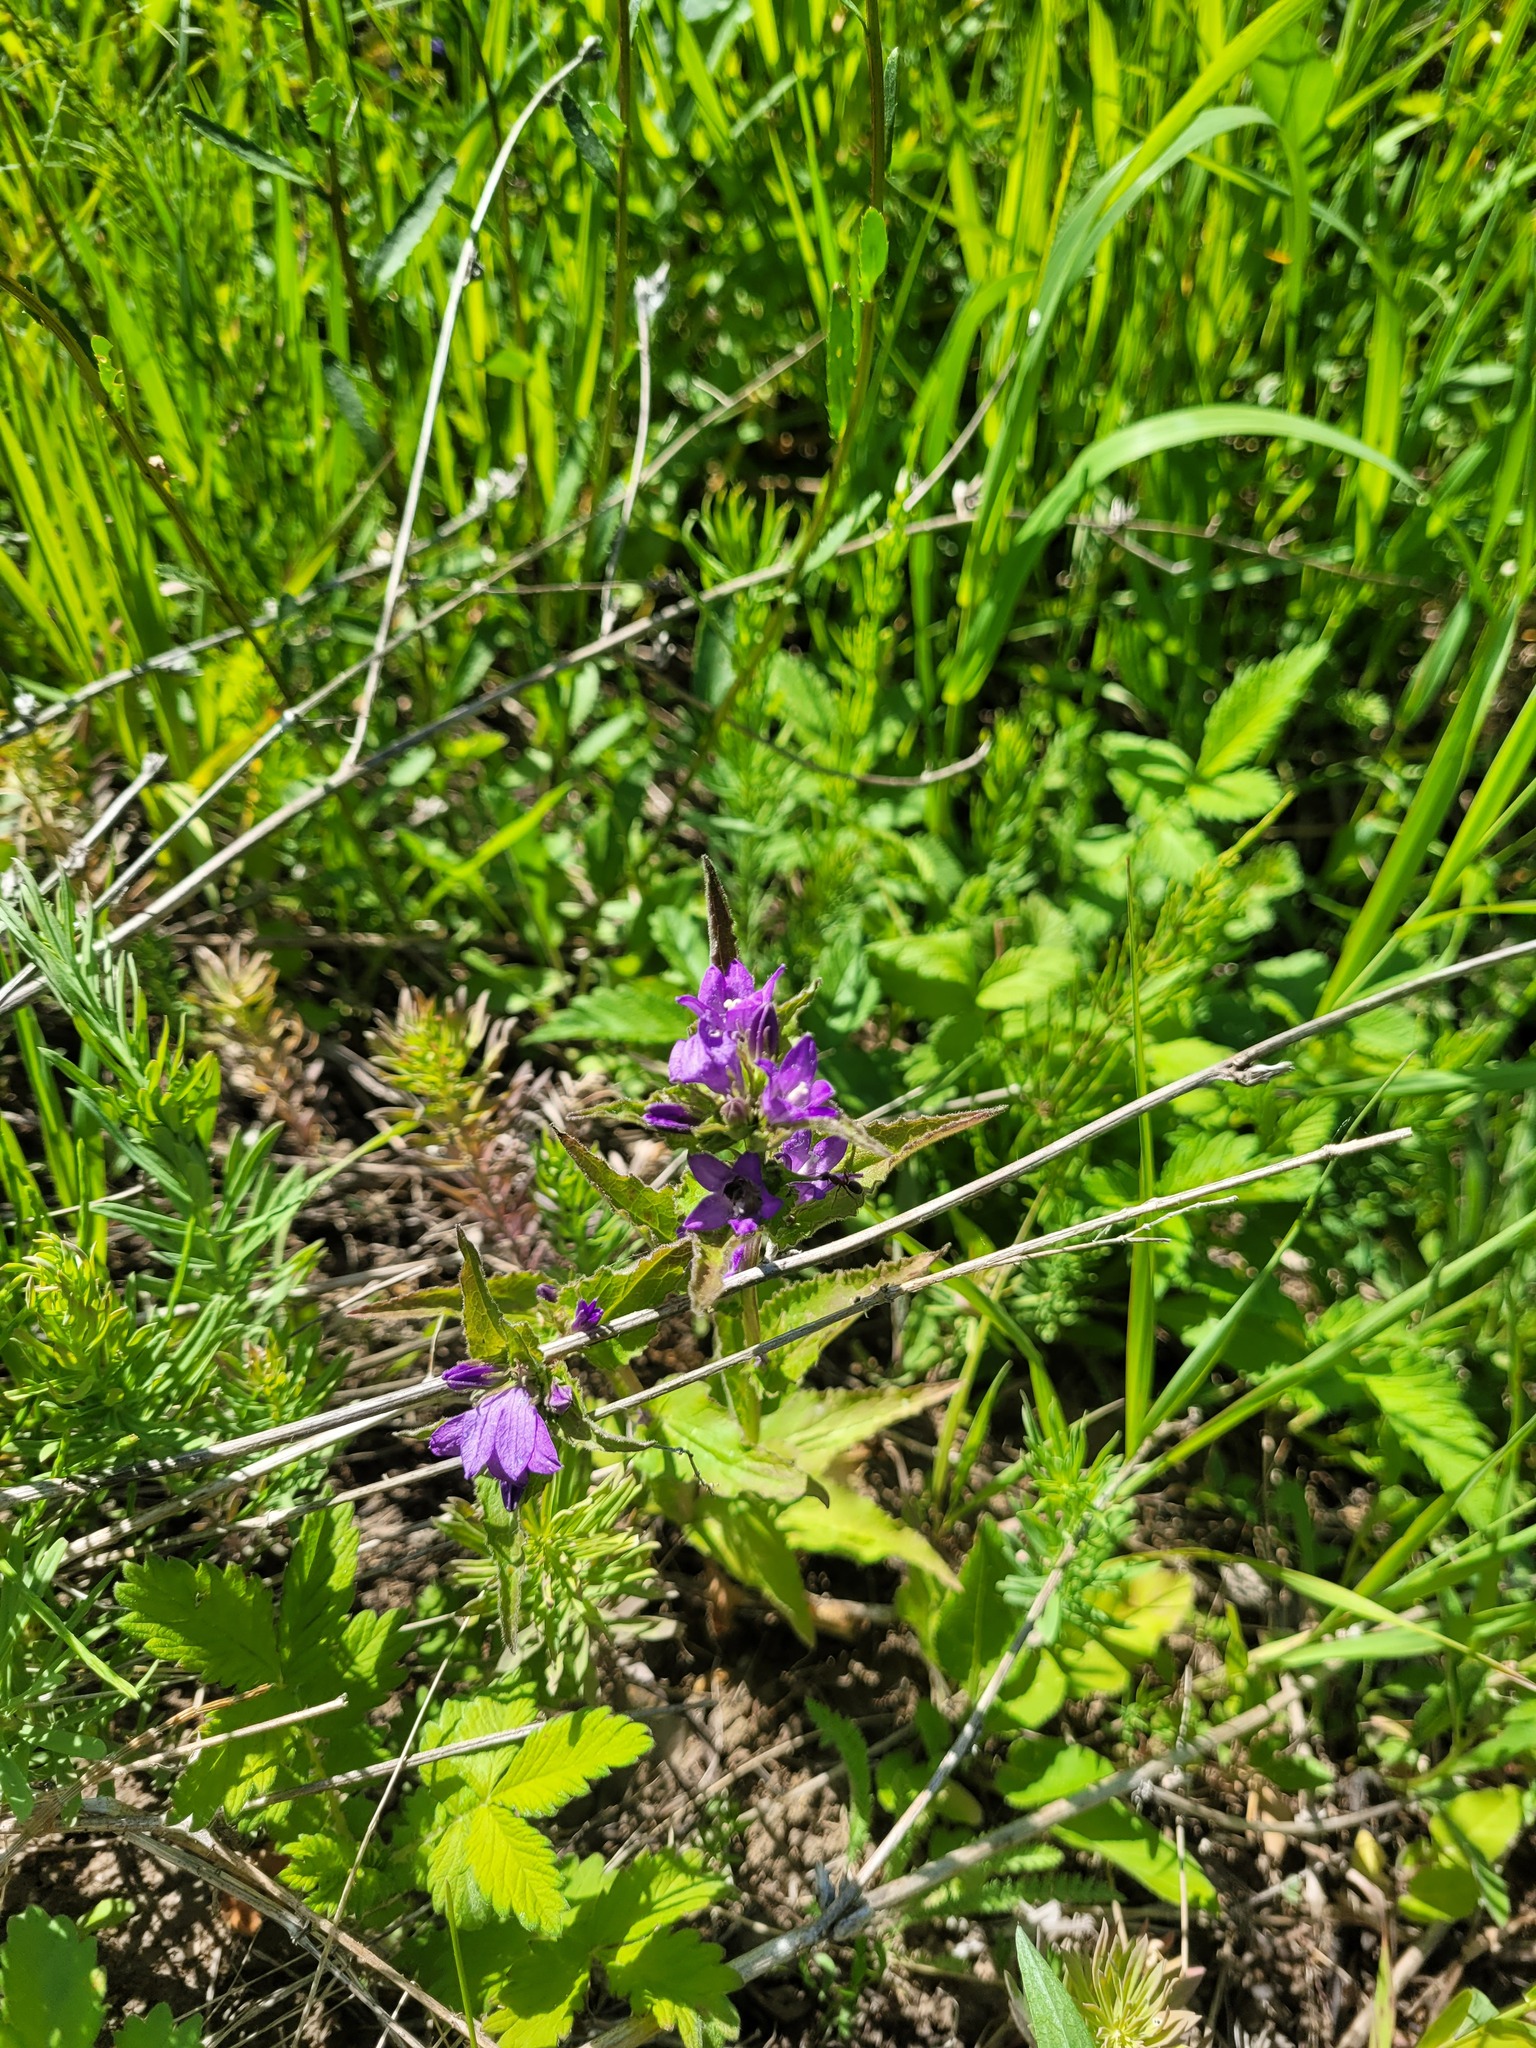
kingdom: Plantae
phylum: Tracheophyta
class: Magnoliopsida
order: Asterales
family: Campanulaceae
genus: Campanula
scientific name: Campanula glomerata
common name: Clustered bellflower
